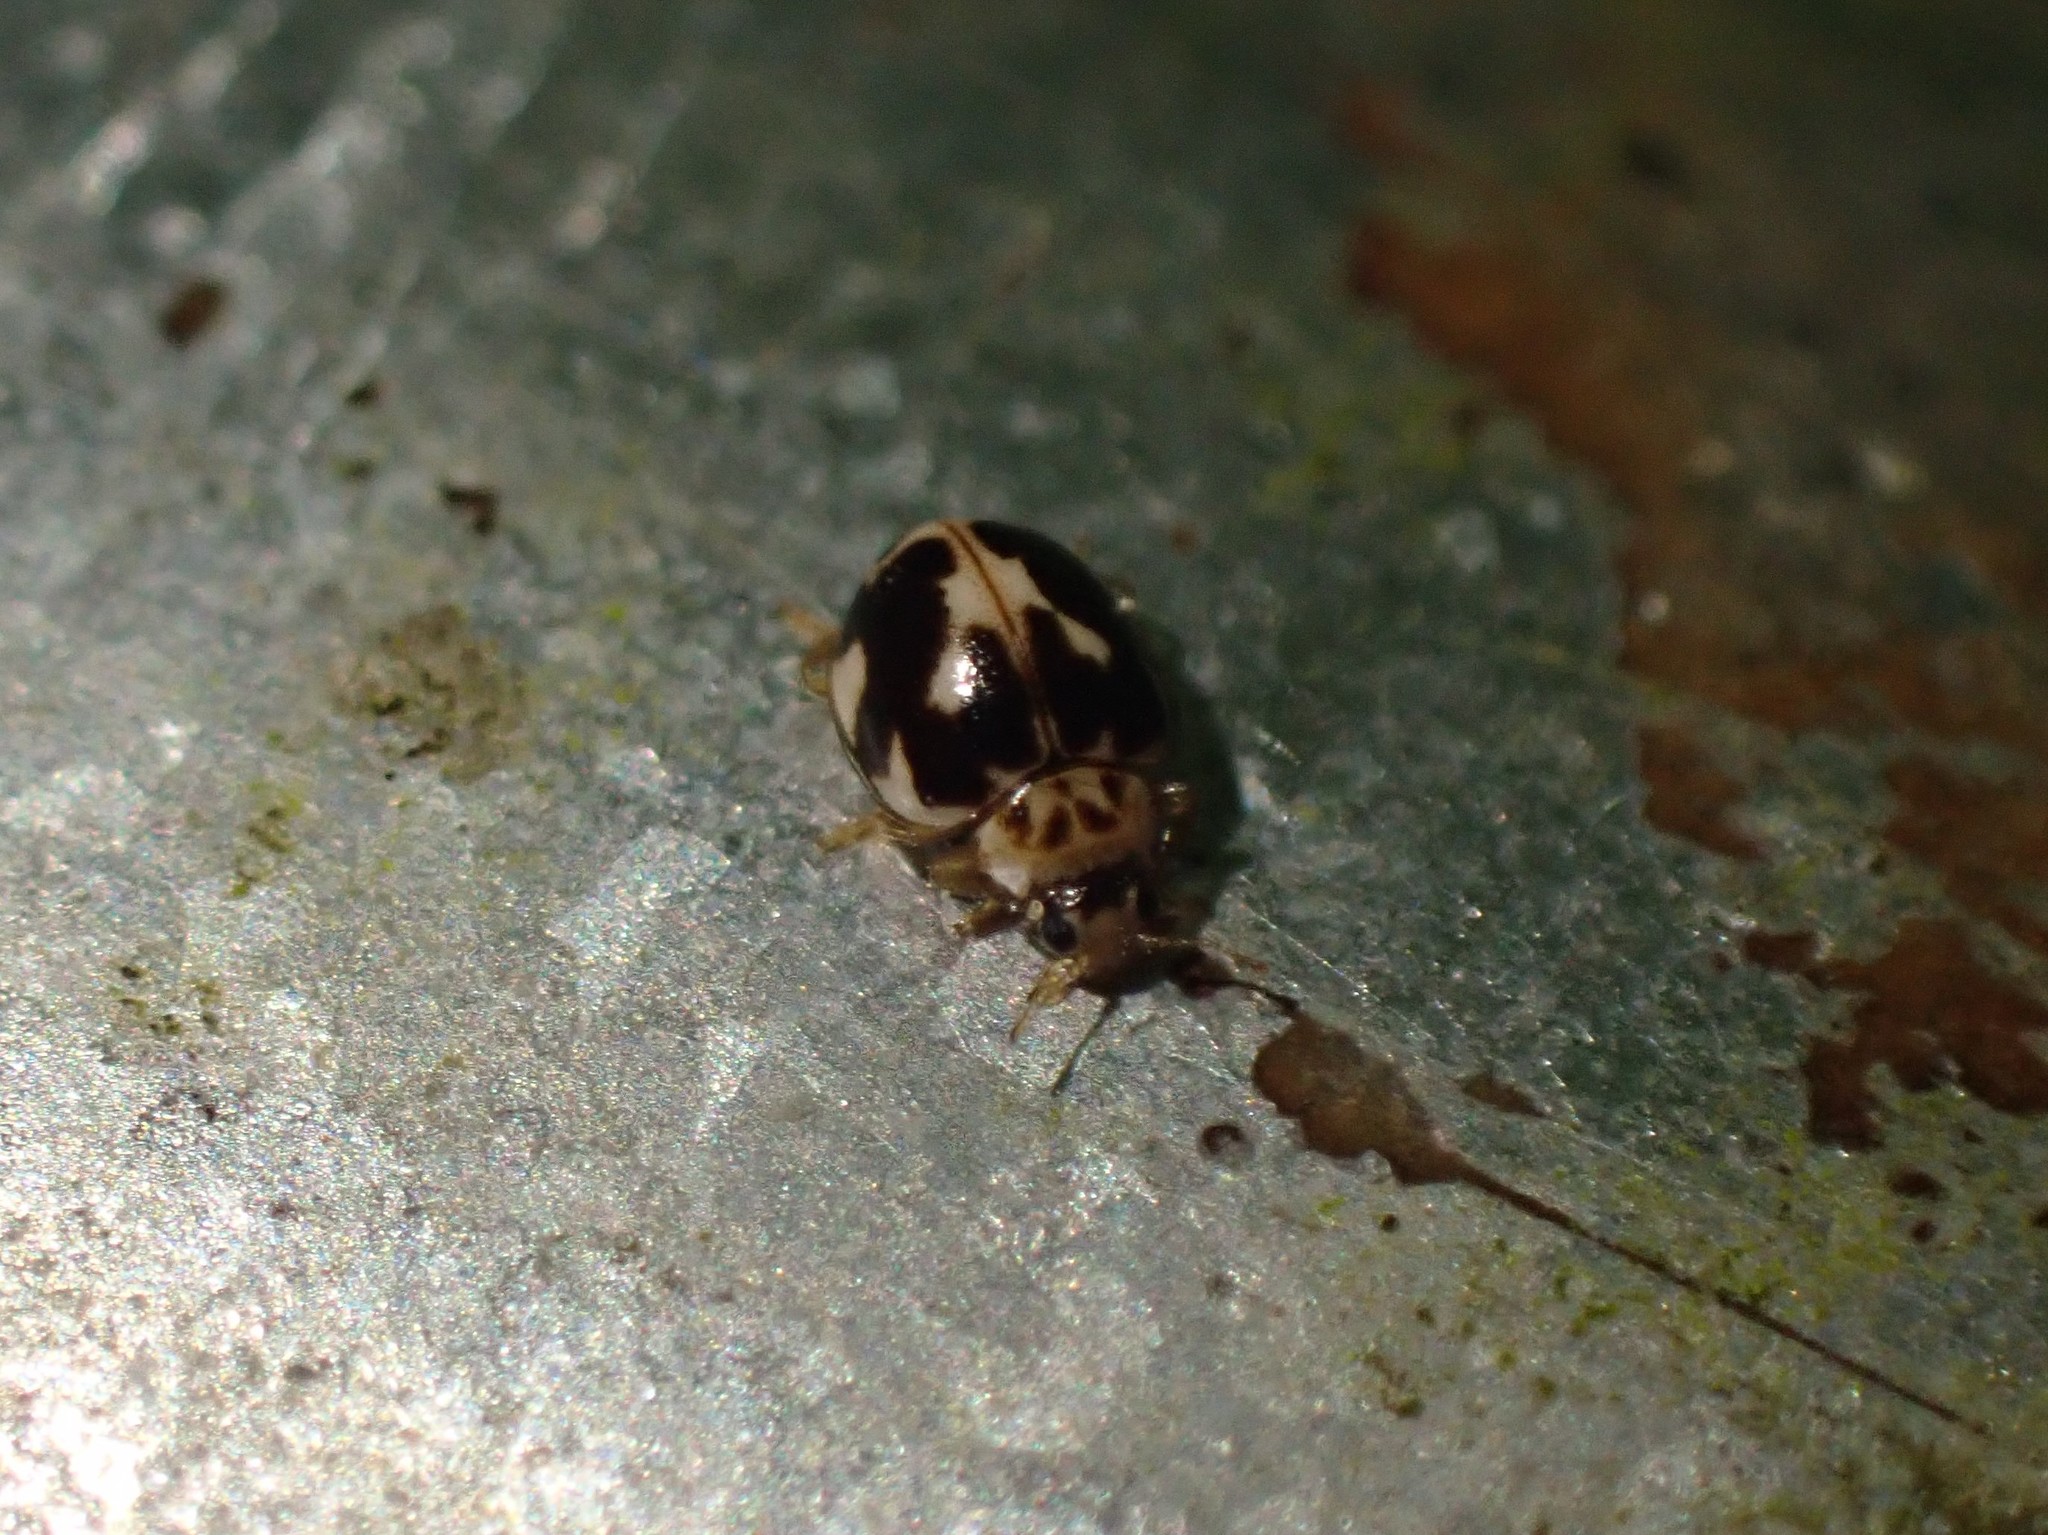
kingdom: Animalia
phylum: Arthropoda
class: Insecta
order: Coleoptera
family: Coccinellidae
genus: Psyllobora
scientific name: Psyllobora vigintimaculata
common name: Ladybird beetle
